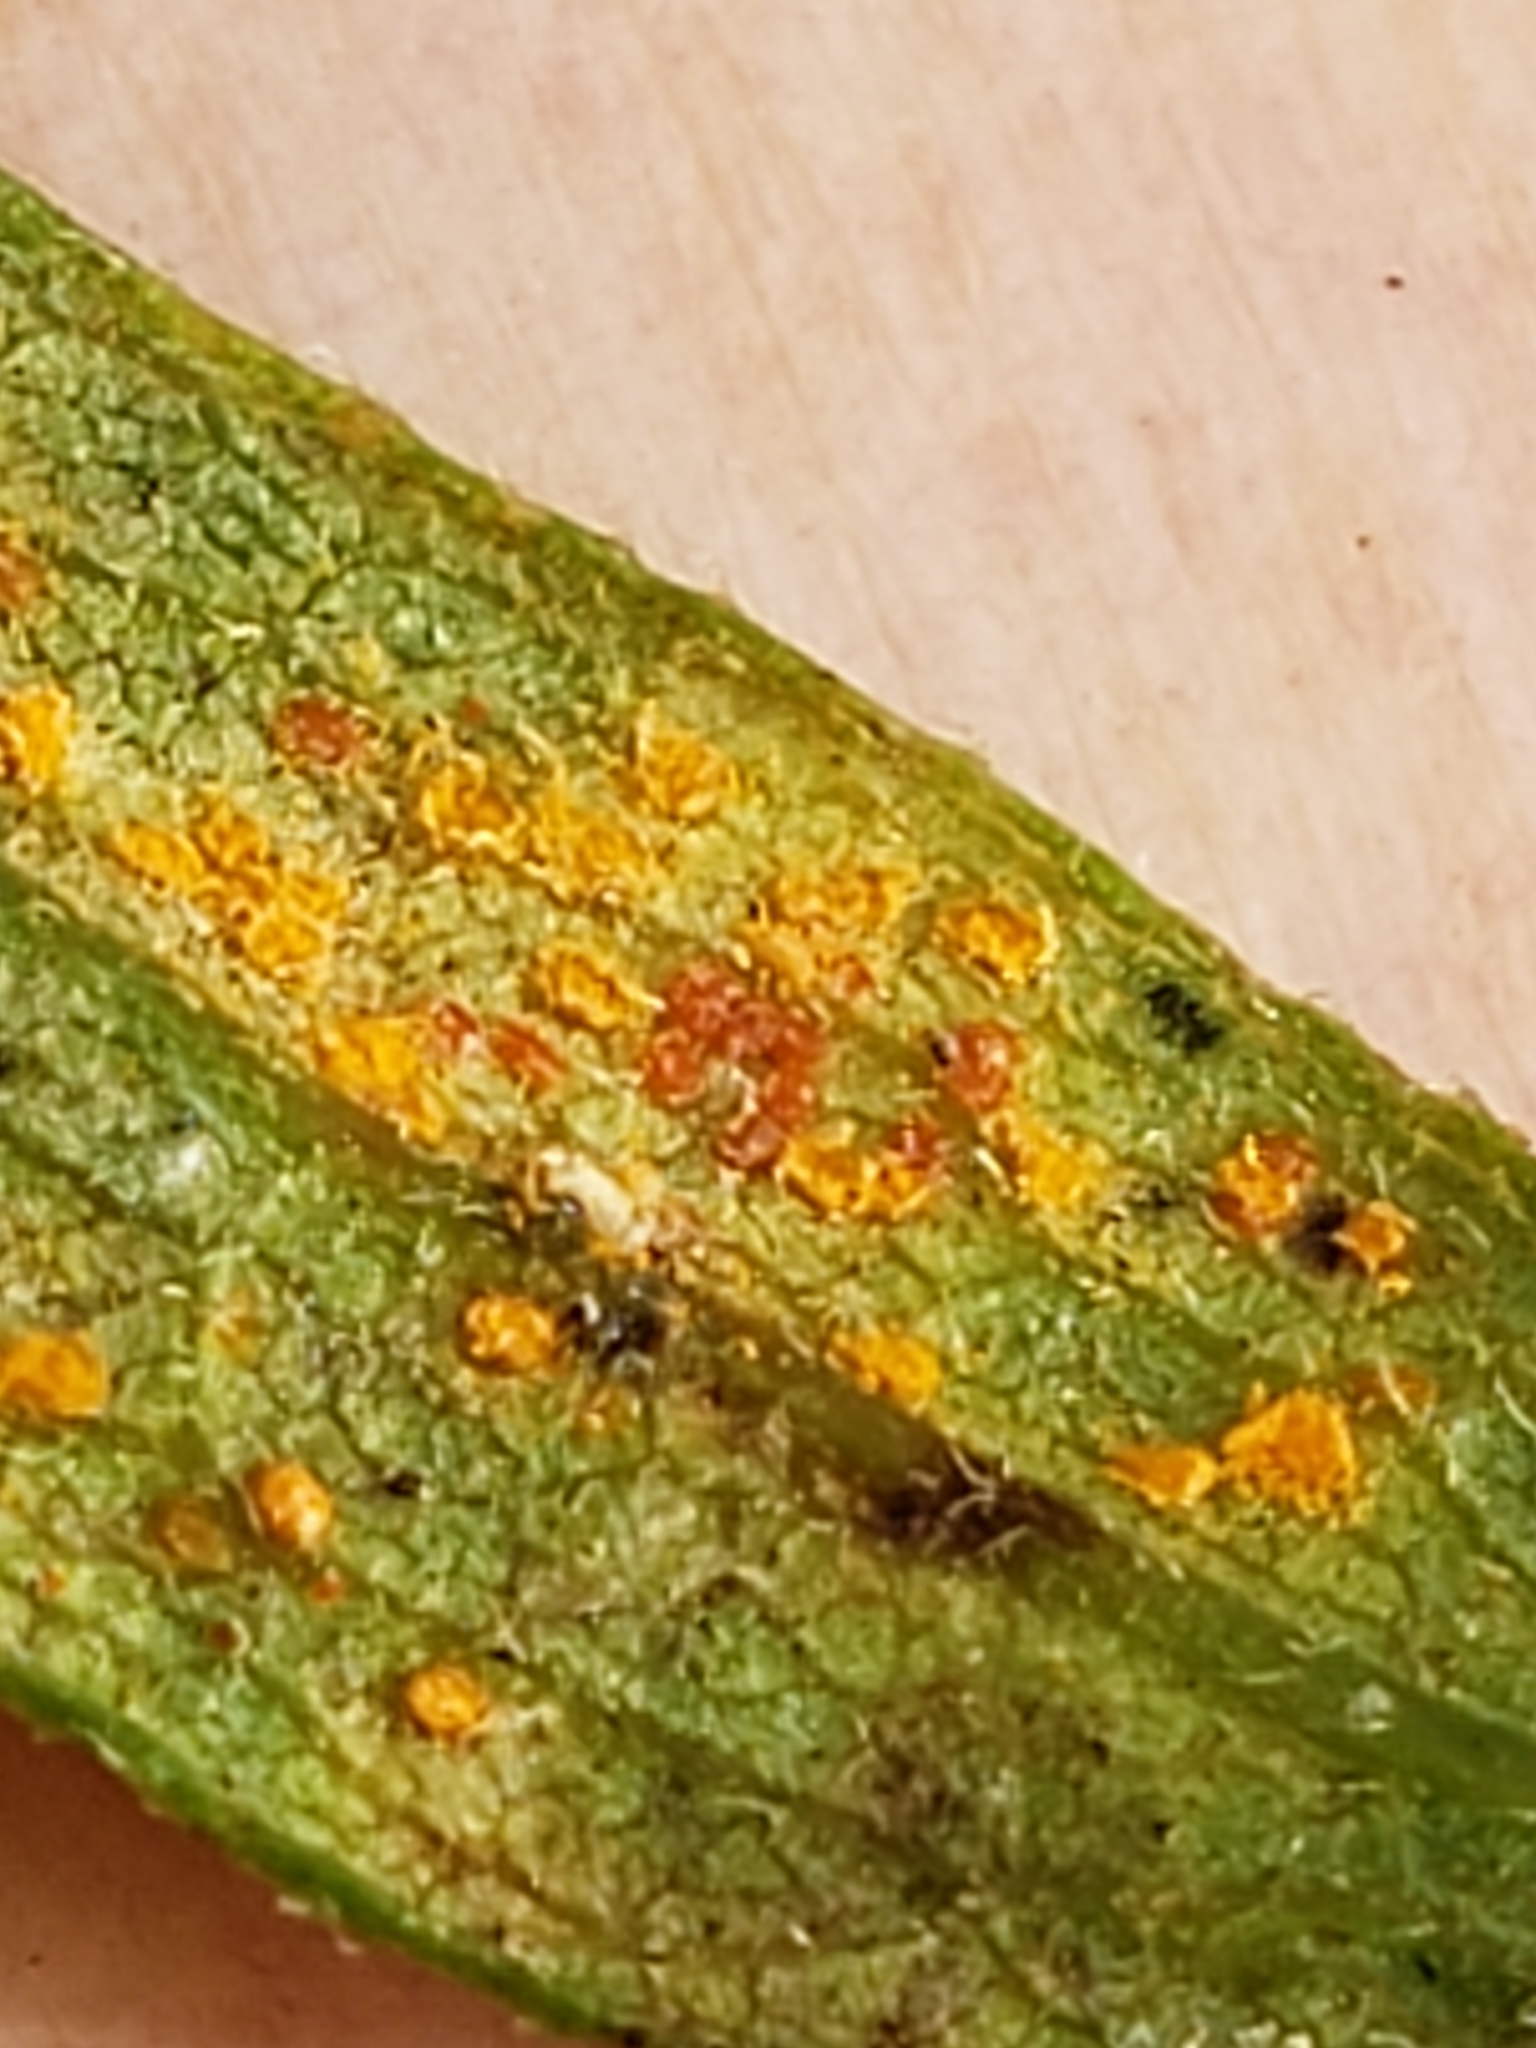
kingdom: Fungi
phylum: Basidiomycota
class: Pucciniomycetes
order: Pucciniales
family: Coleosporiaceae
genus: Coleosporium
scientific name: Coleosporium asterum
